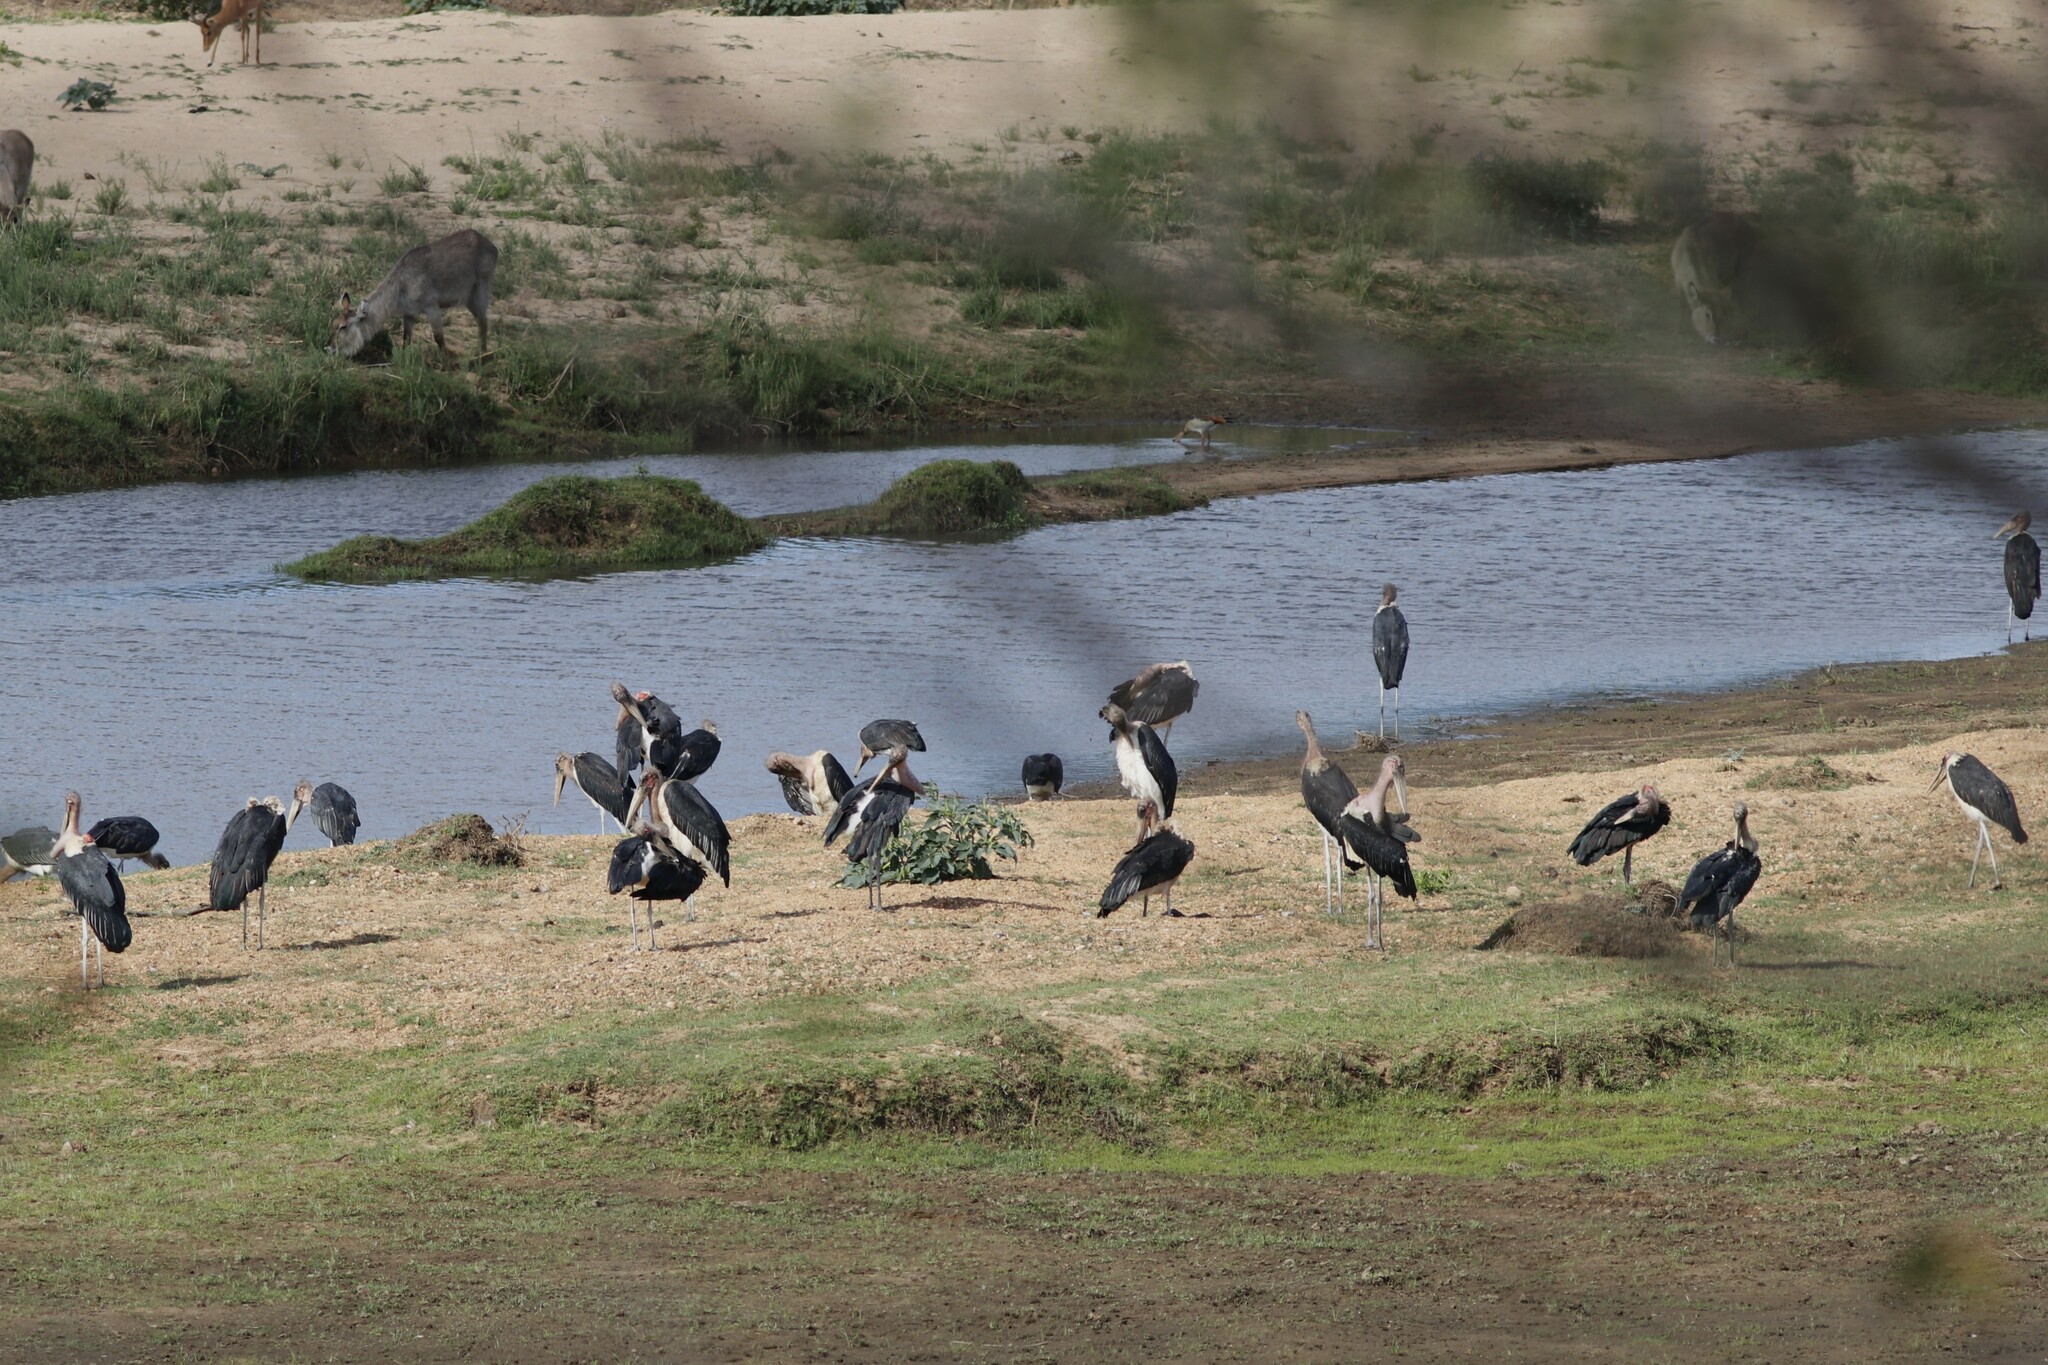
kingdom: Animalia
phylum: Chordata
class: Aves
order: Ciconiiformes
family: Ciconiidae
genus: Leptoptilos
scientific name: Leptoptilos crumenifer
